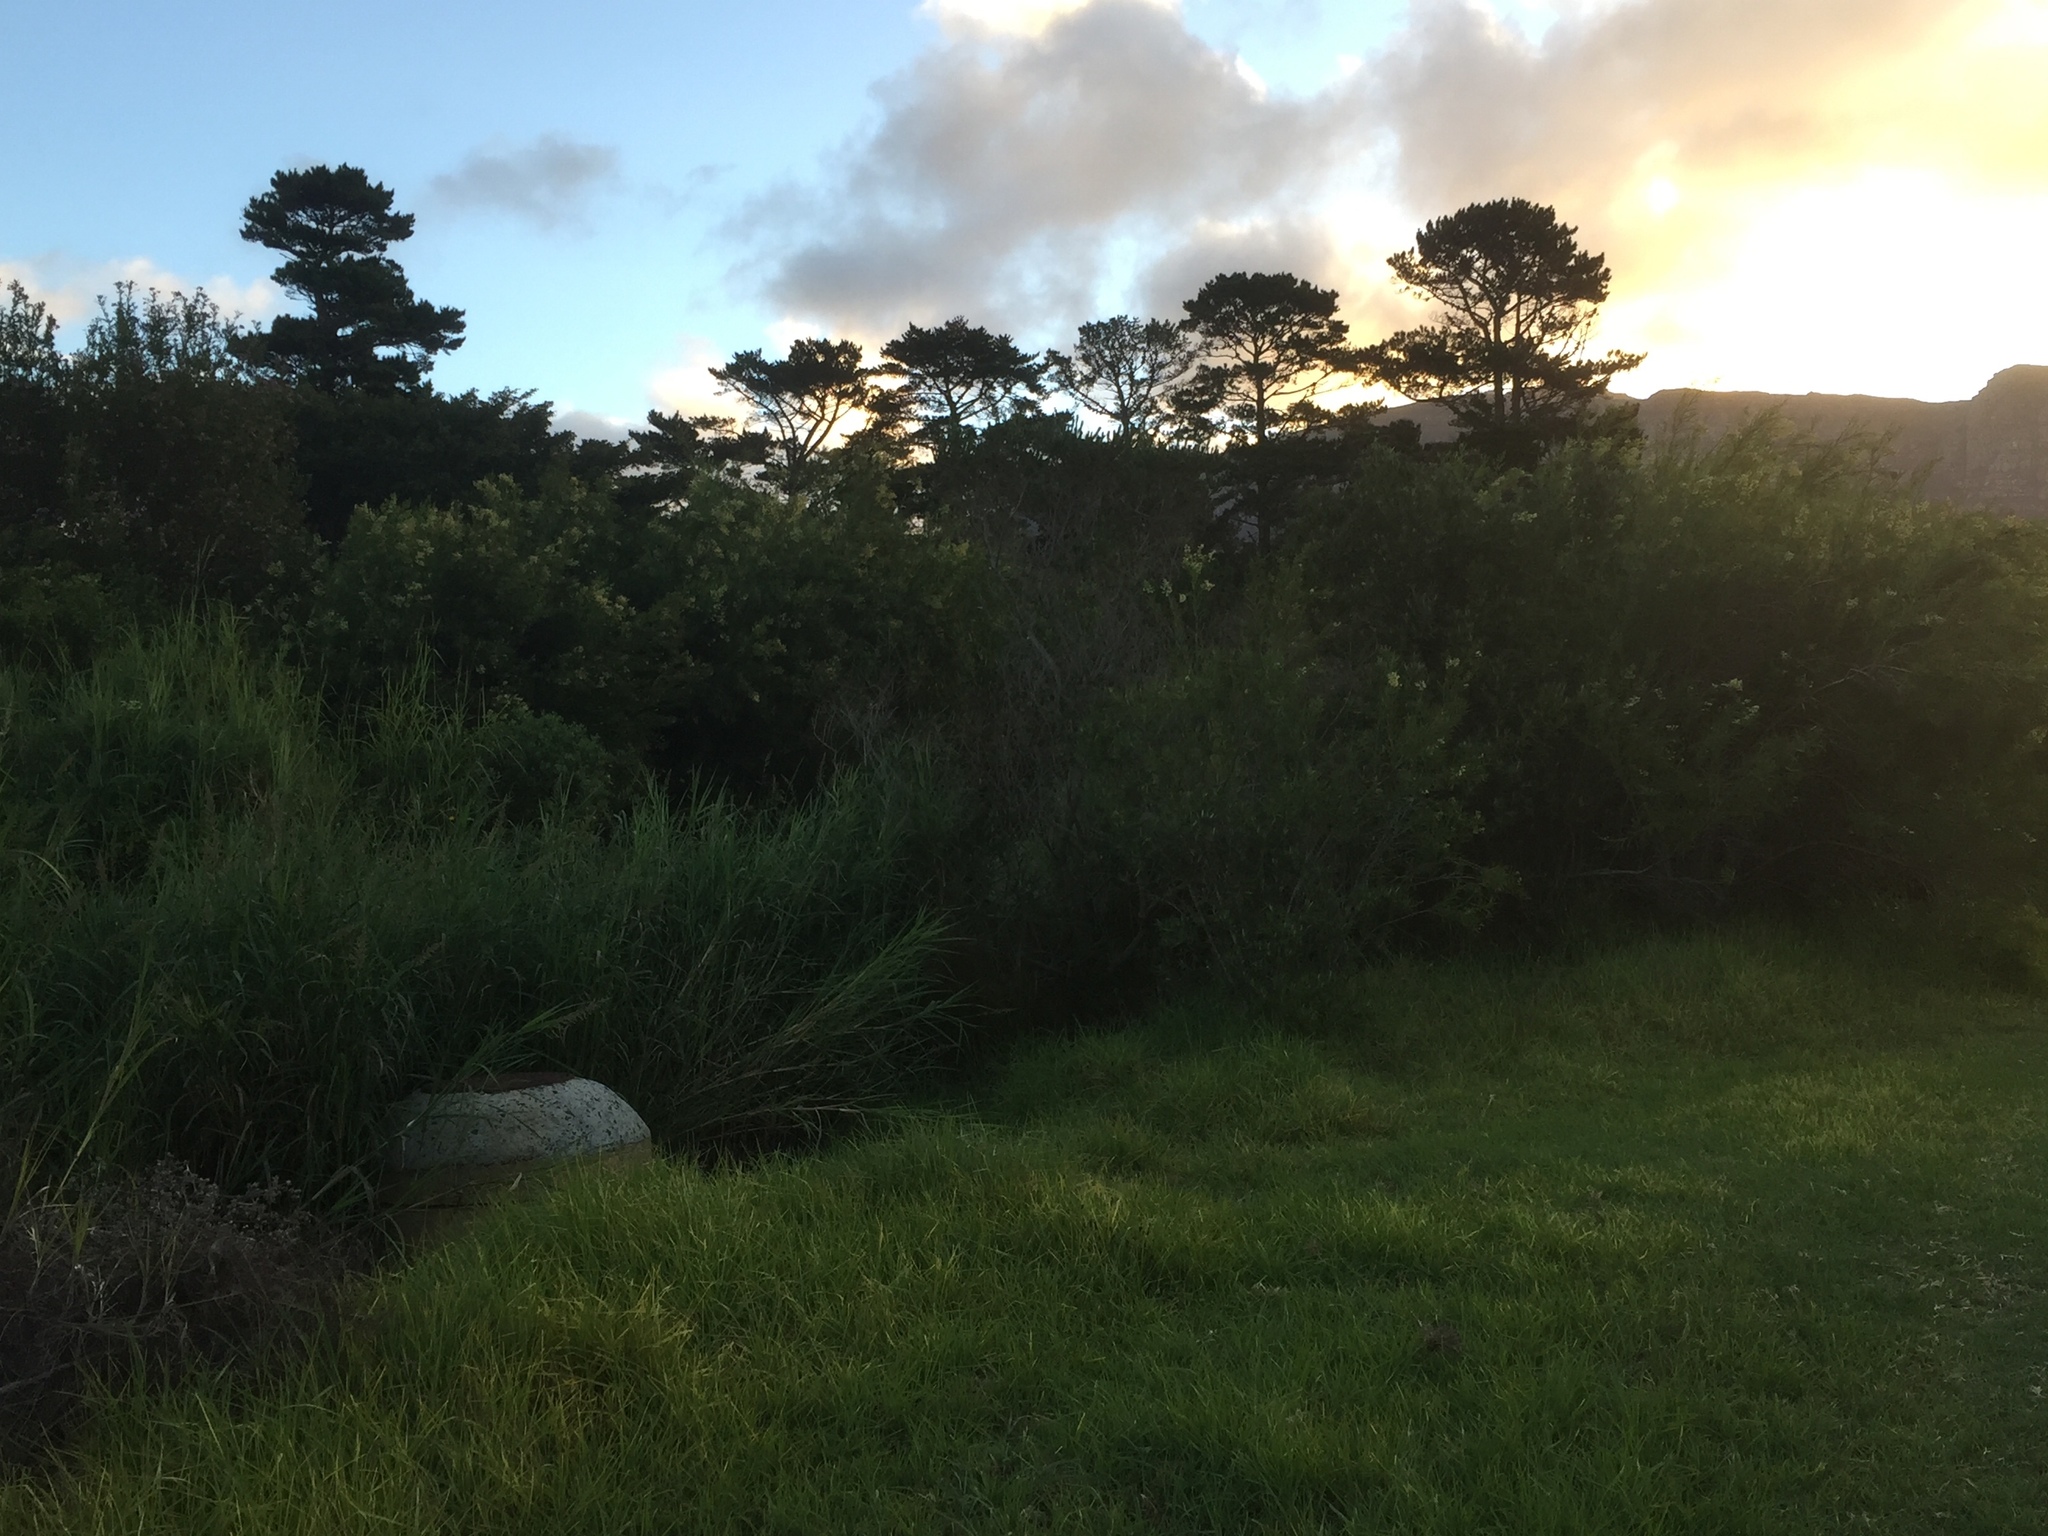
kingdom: Plantae
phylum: Tracheophyta
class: Magnoliopsida
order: Lamiales
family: Scrophulariaceae
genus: Freylinia
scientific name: Freylinia lanceolata
